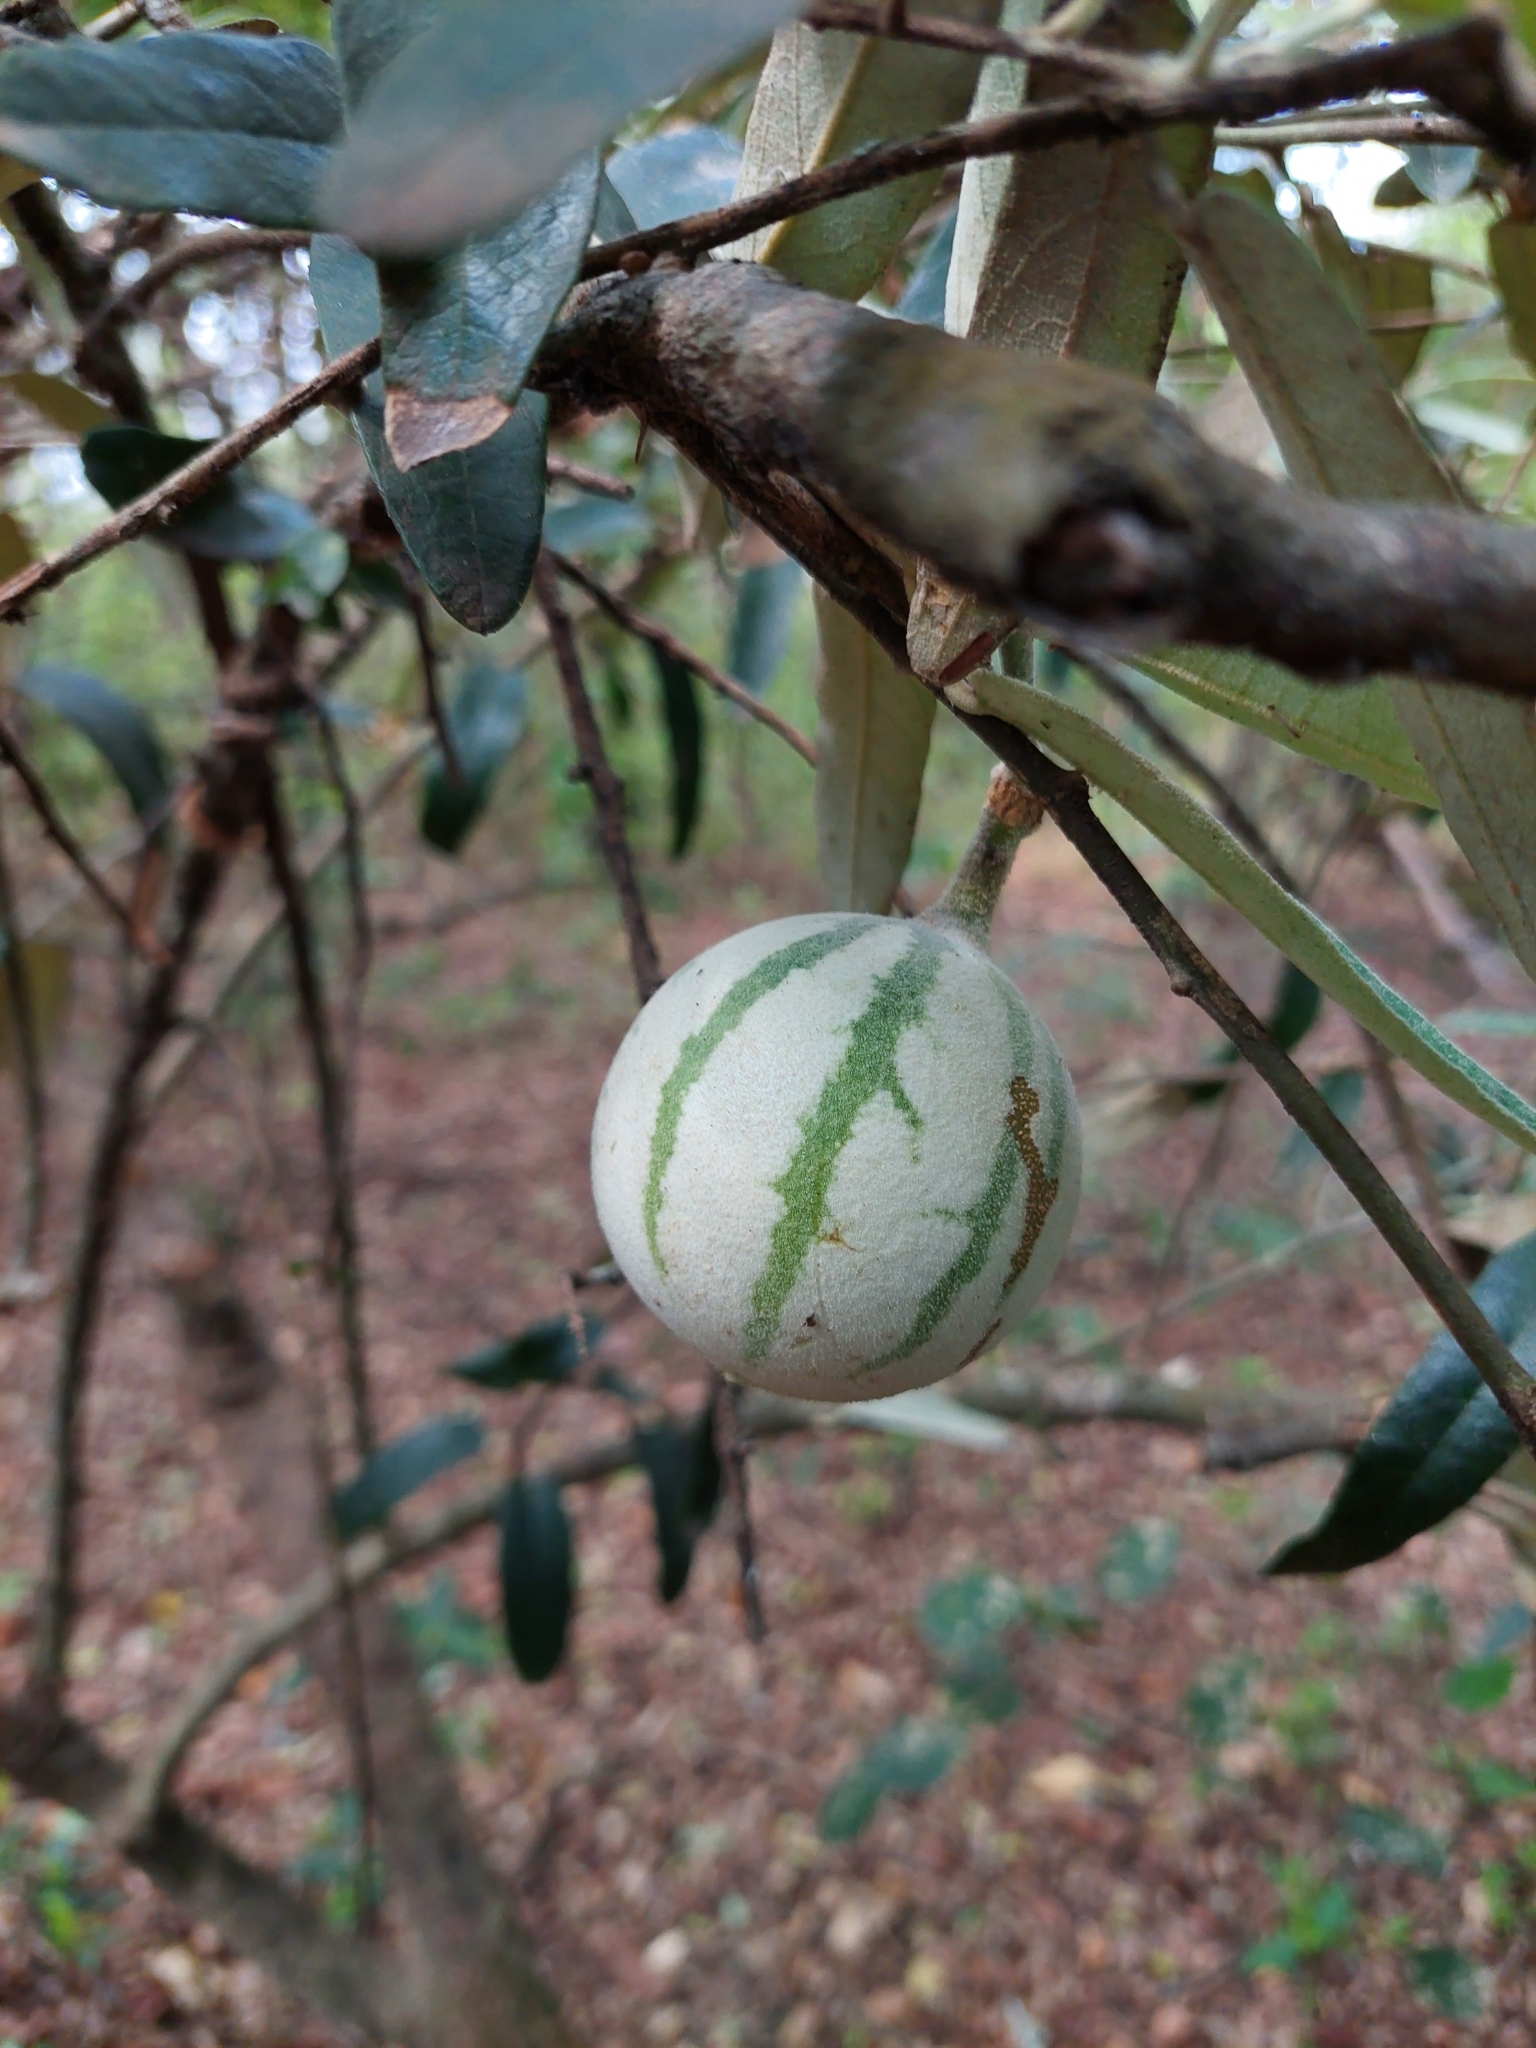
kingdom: Plantae
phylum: Tracheophyta
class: Magnoliopsida
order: Brassicales
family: Capparaceae
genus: Sarcotoxicum
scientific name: Sarcotoxicum salicifolium
